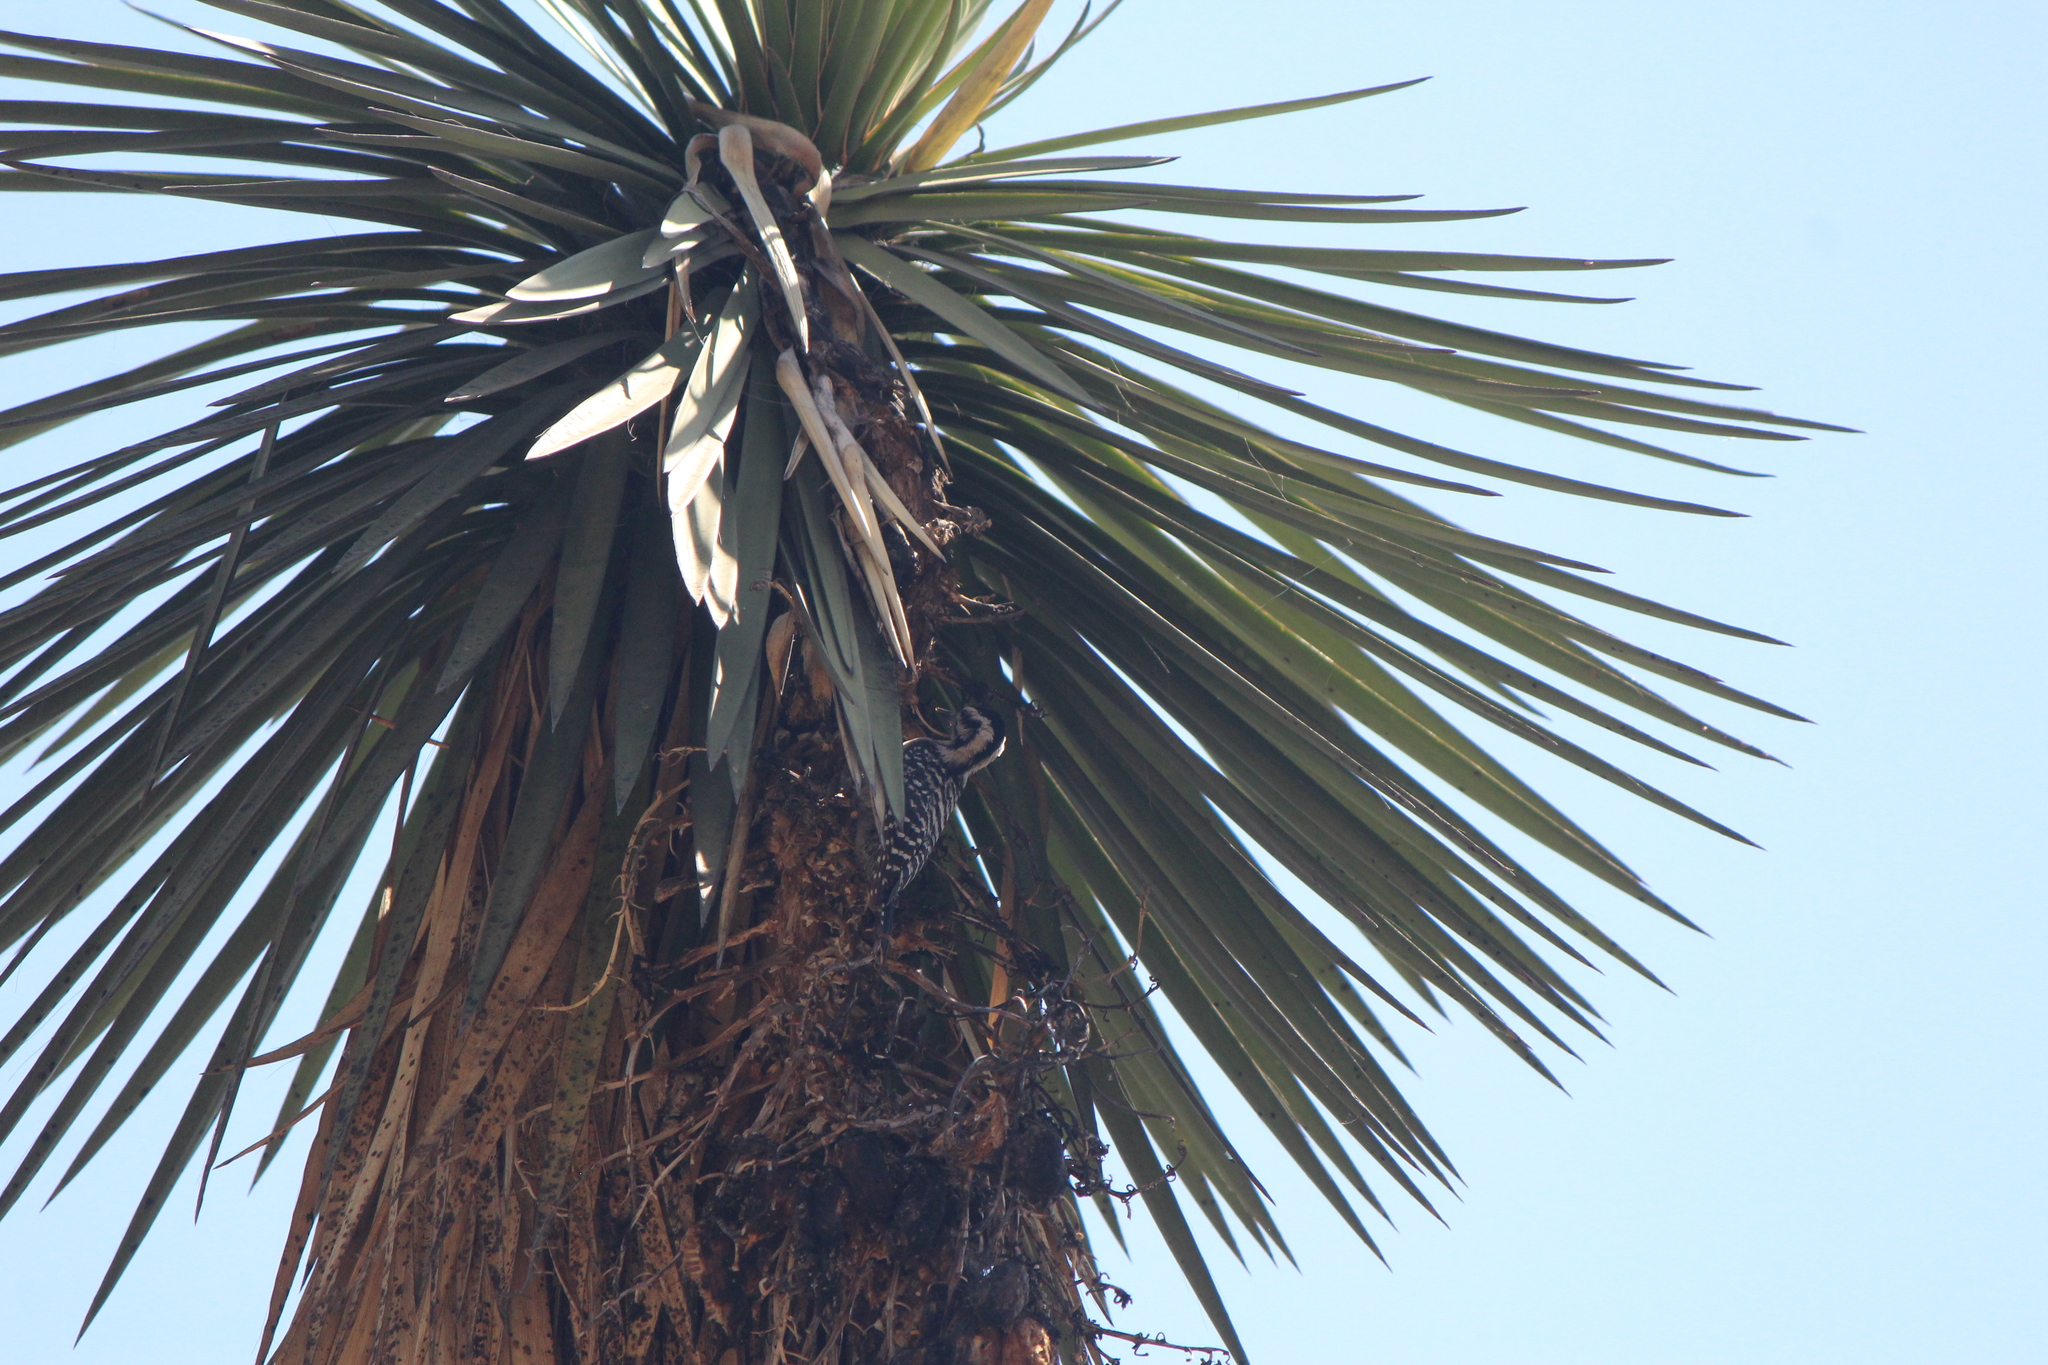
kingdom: Animalia
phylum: Chordata
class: Aves
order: Piciformes
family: Picidae
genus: Dryobates
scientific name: Dryobates scalaris
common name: Ladder-backed woodpecker
